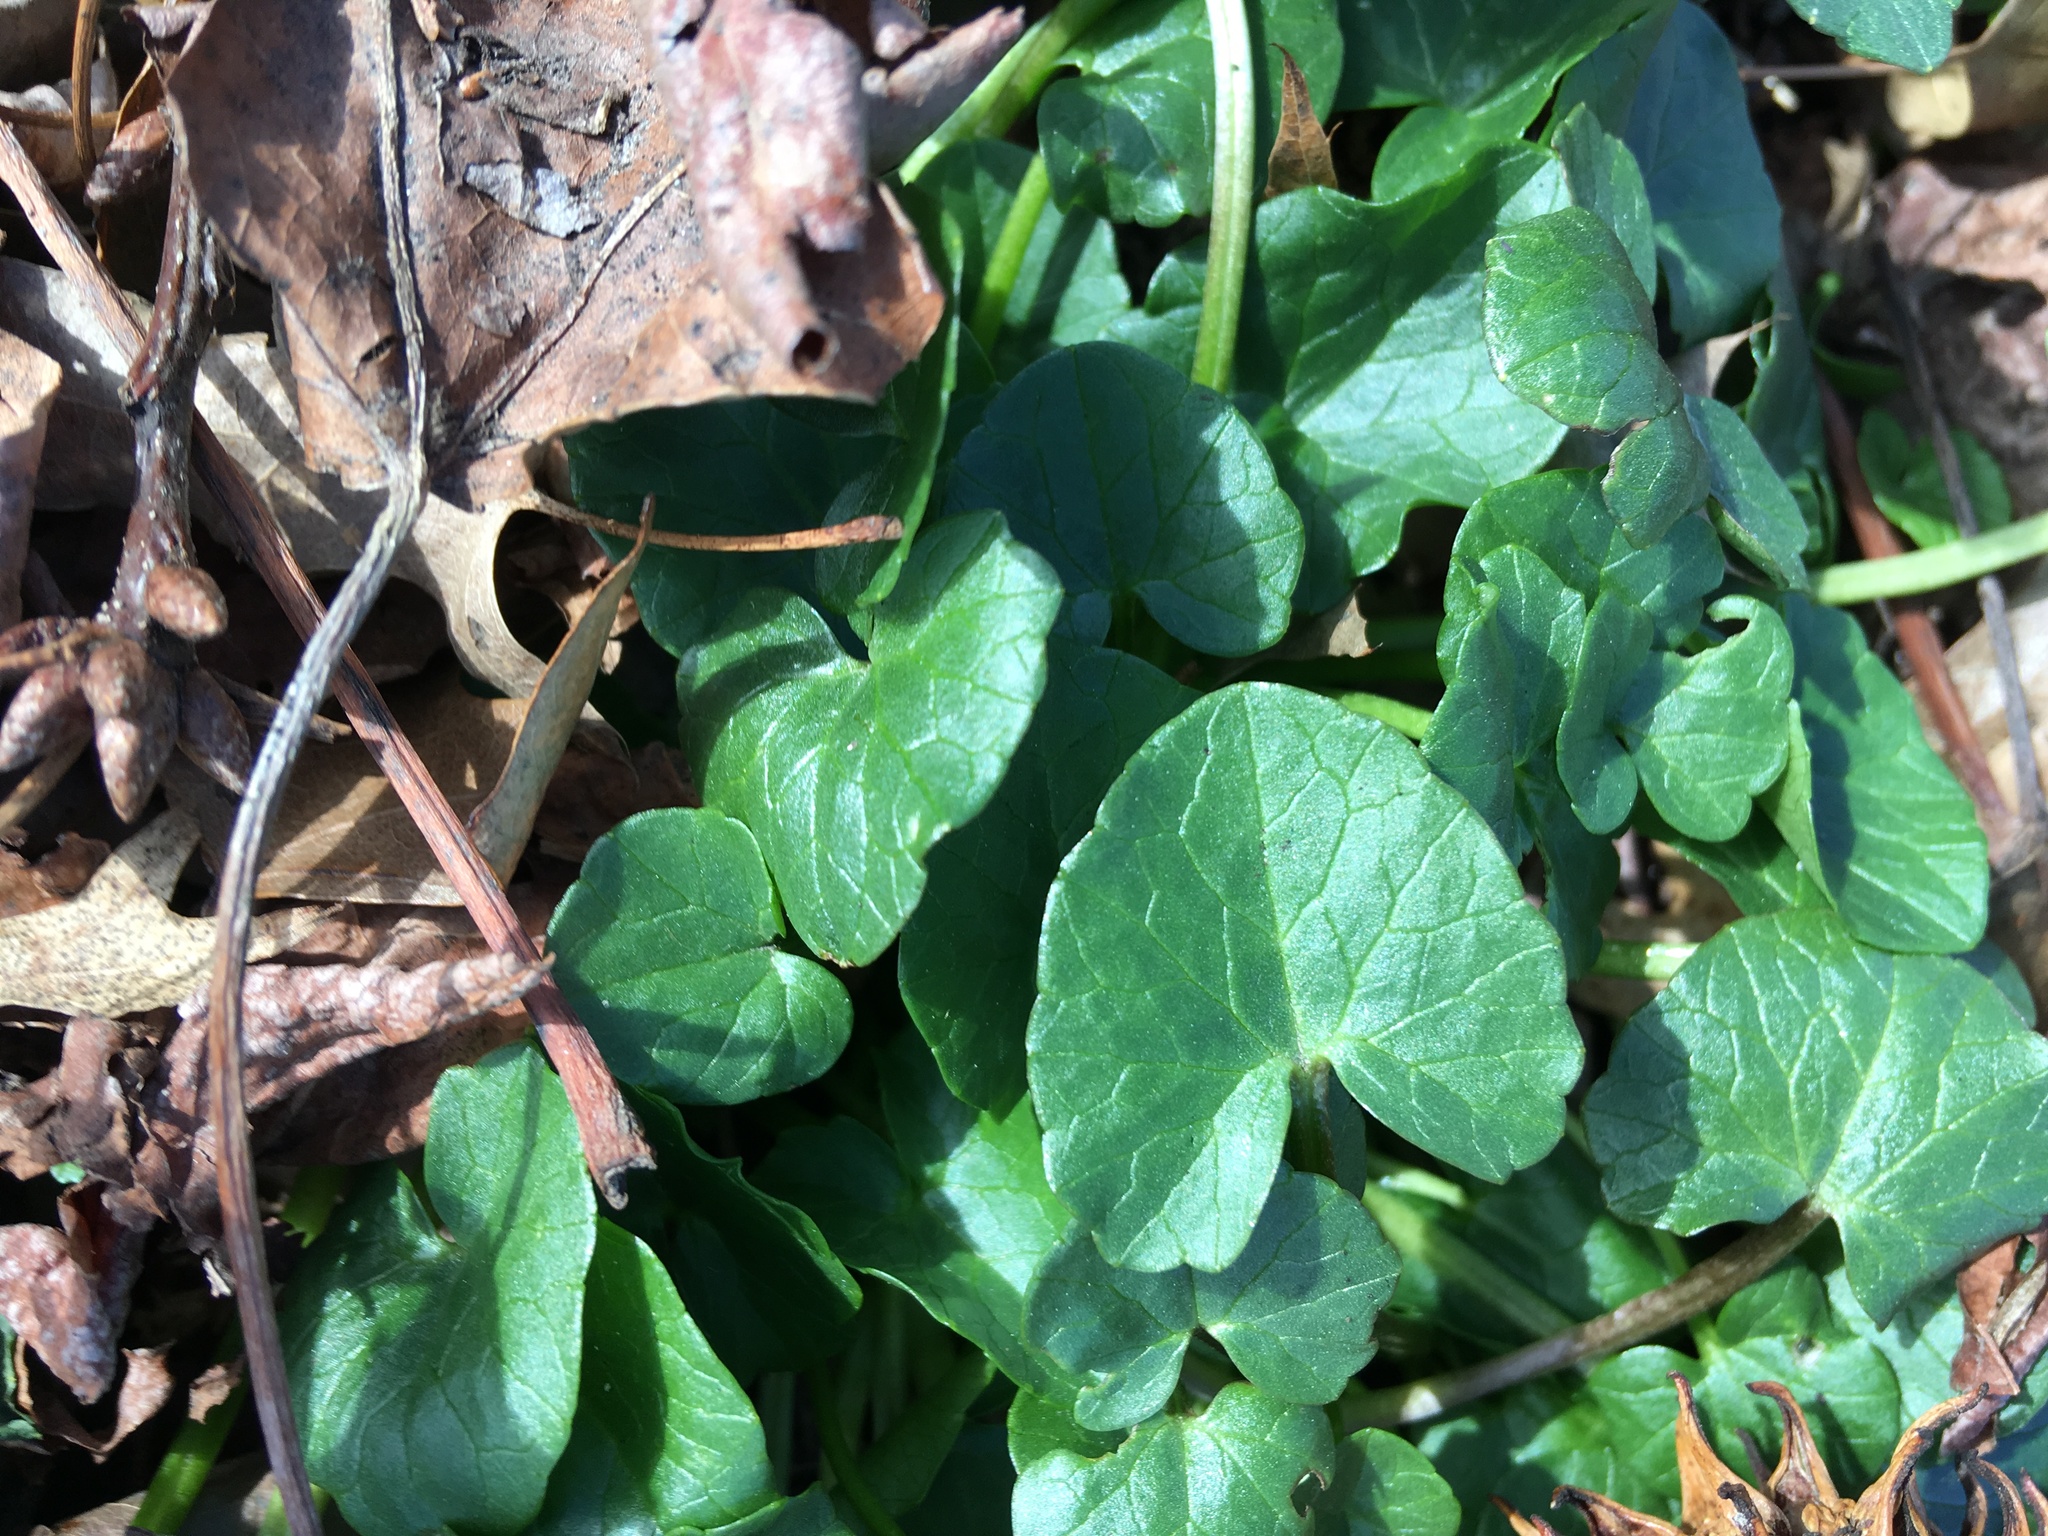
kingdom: Plantae
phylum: Tracheophyta
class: Magnoliopsida
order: Ranunculales
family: Ranunculaceae
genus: Ficaria
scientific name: Ficaria verna
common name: Lesser celandine
